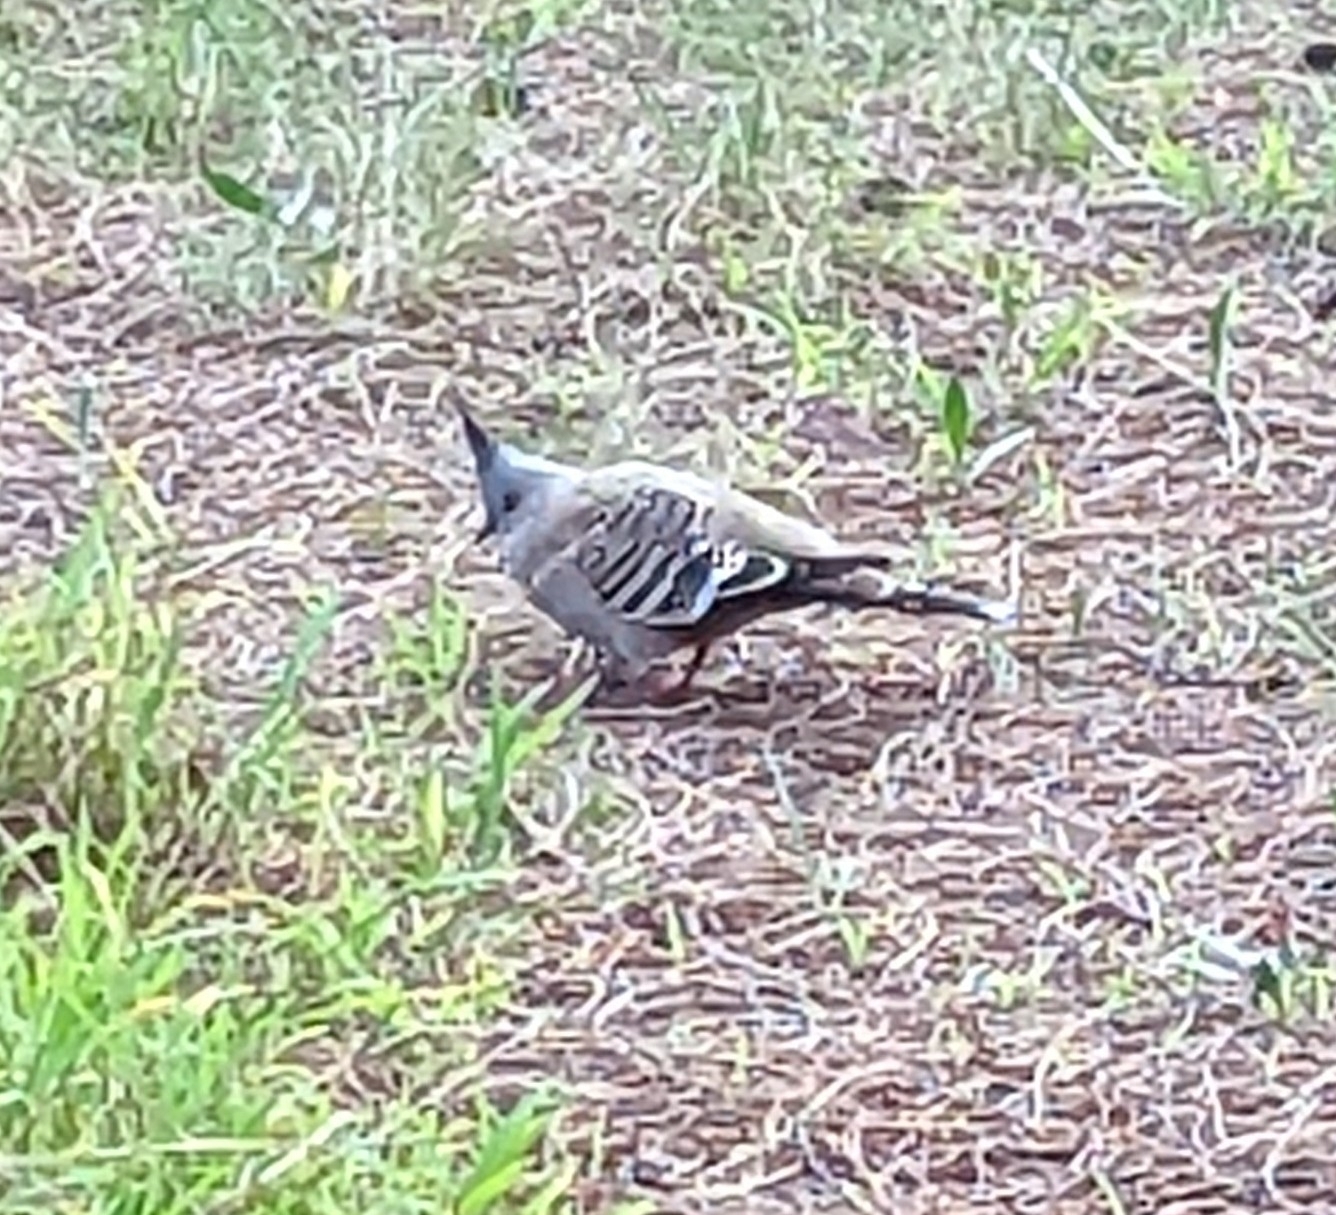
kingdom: Animalia
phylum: Chordata
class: Aves
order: Columbiformes
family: Columbidae
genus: Ocyphaps
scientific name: Ocyphaps lophotes
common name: Crested pigeon
